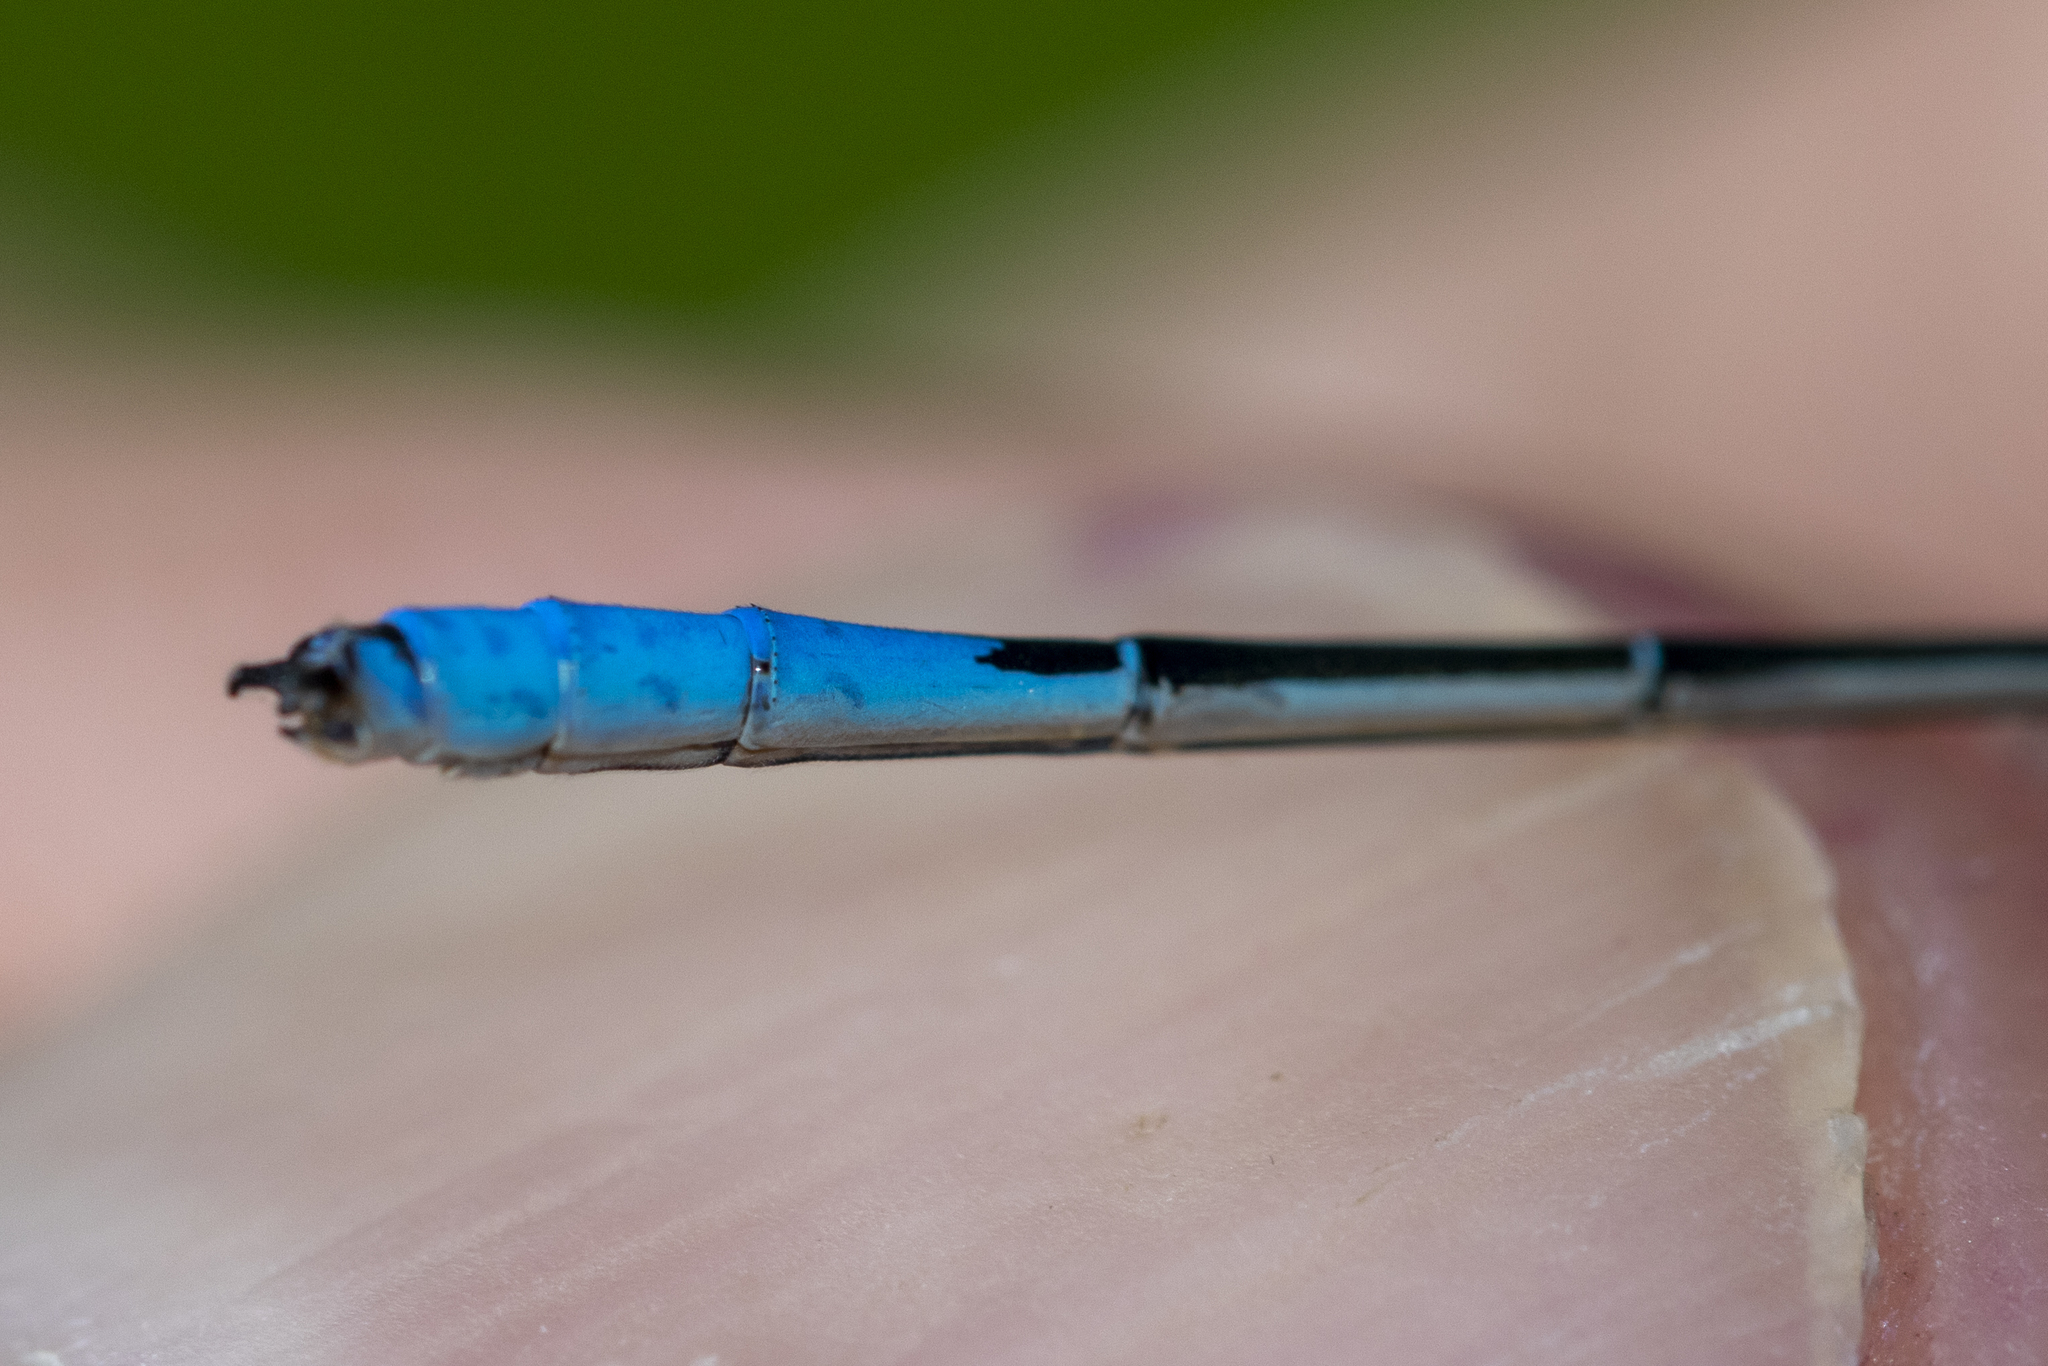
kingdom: Animalia
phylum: Arthropoda
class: Insecta
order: Odonata
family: Coenagrionidae
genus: Enallagma
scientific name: Enallagma aspersum
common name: Azure bluet
